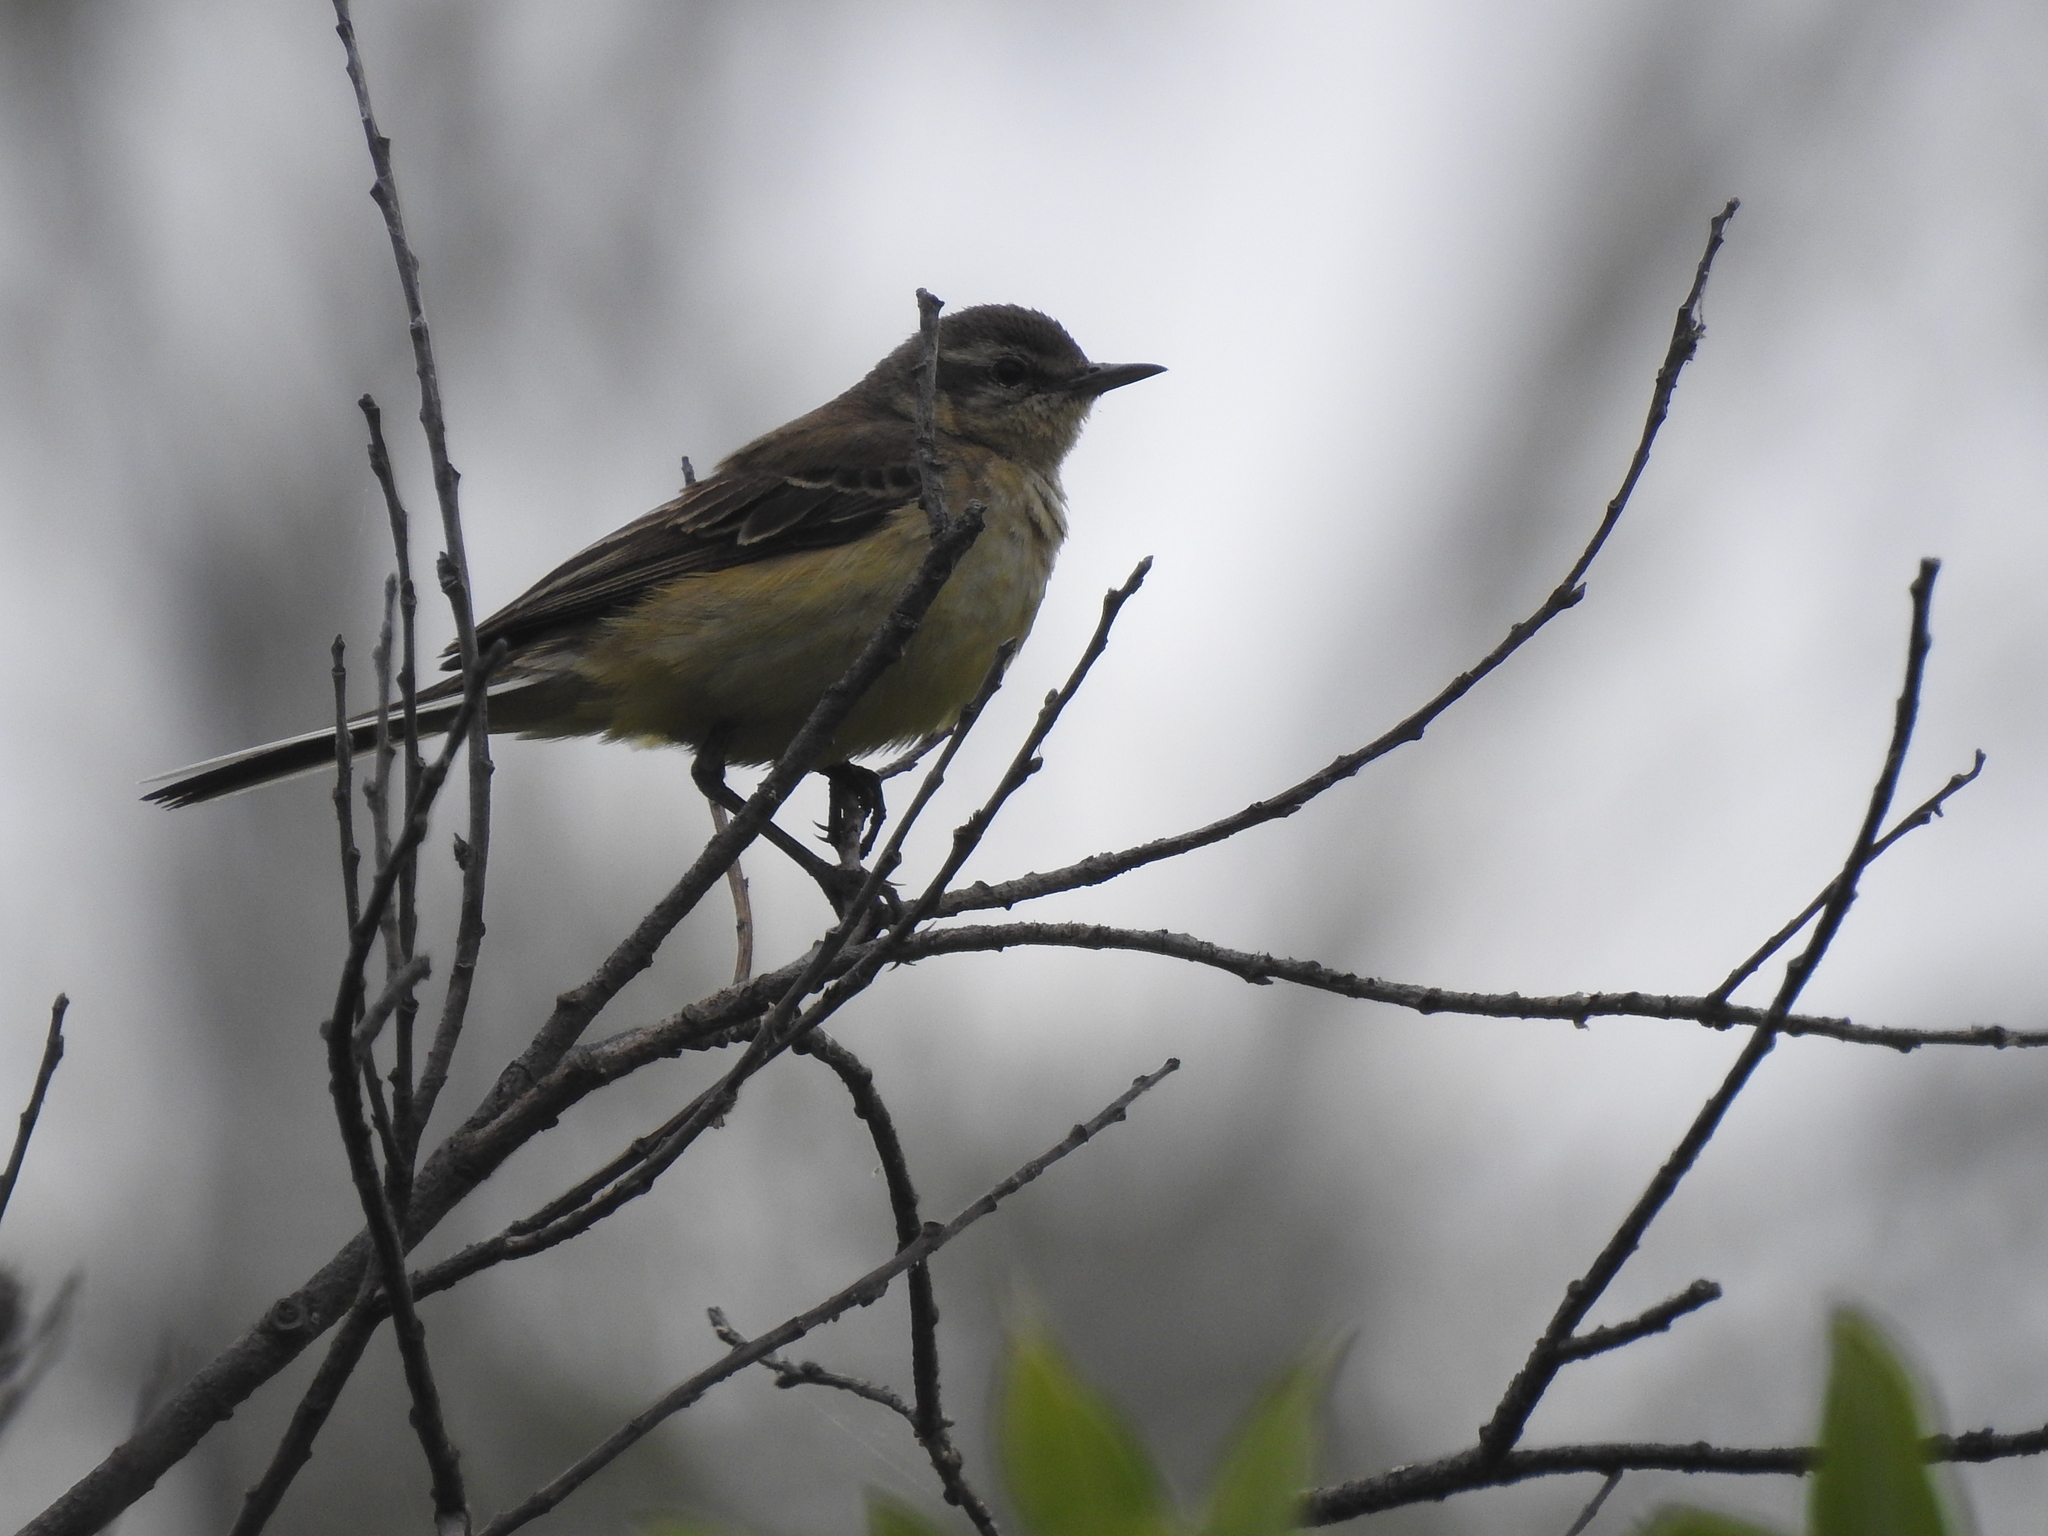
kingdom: Animalia
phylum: Chordata
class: Aves
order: Passeriformes
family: Motacillidae
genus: Motacilla
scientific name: Motacilla flava
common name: Western yellow wagtail
